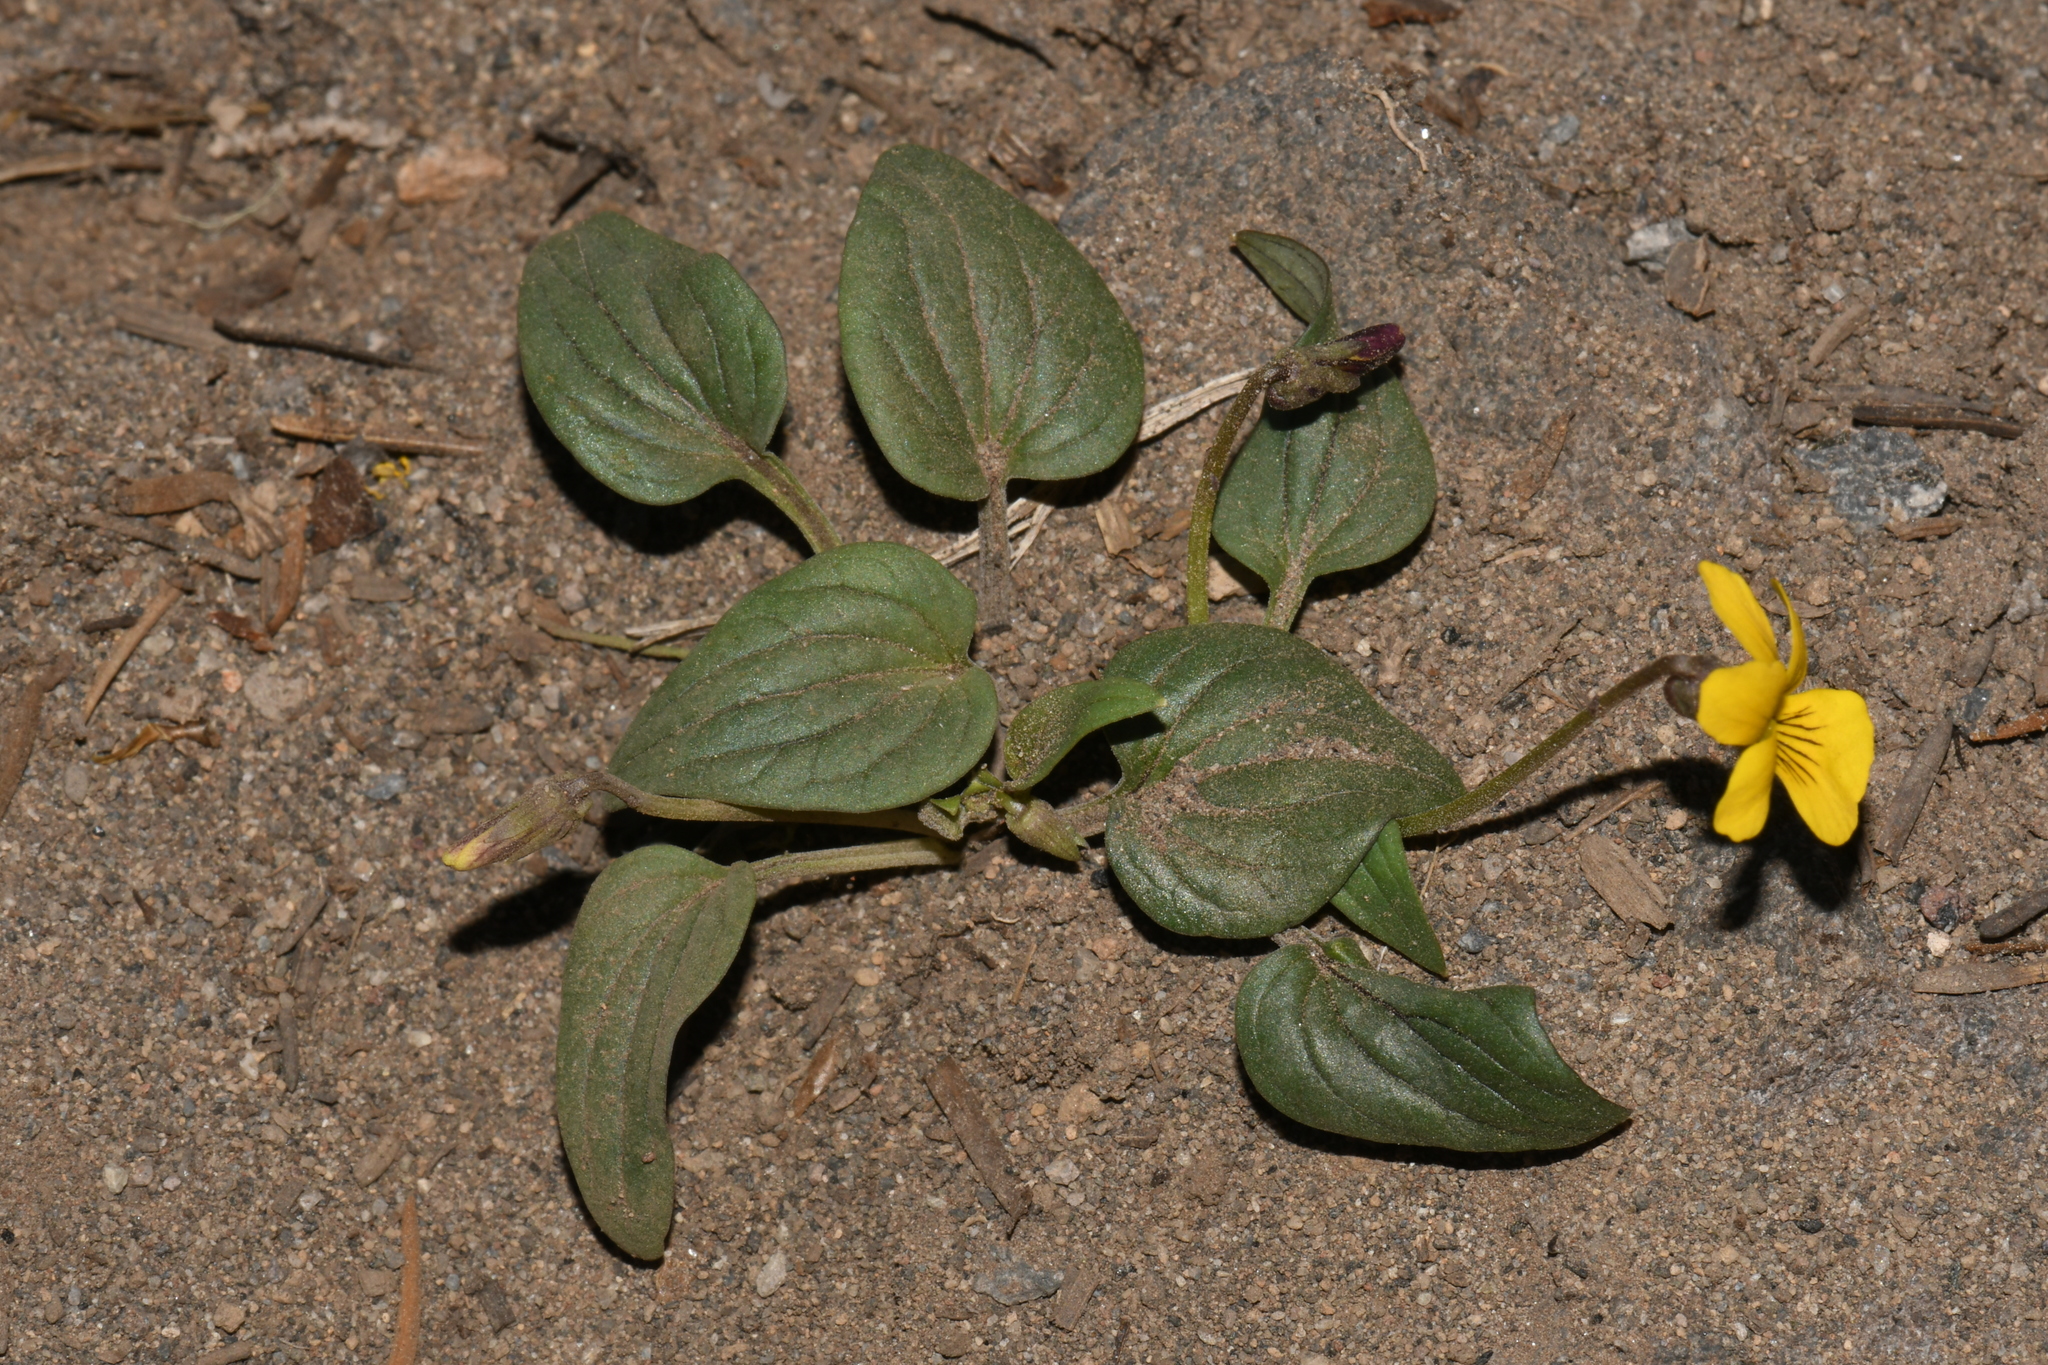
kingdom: Plantae
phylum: Tracheophyta
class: Magnoliopsida
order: Malpighiales
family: Violaceae
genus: Viola
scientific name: Viola purpurea
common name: Pine violet
